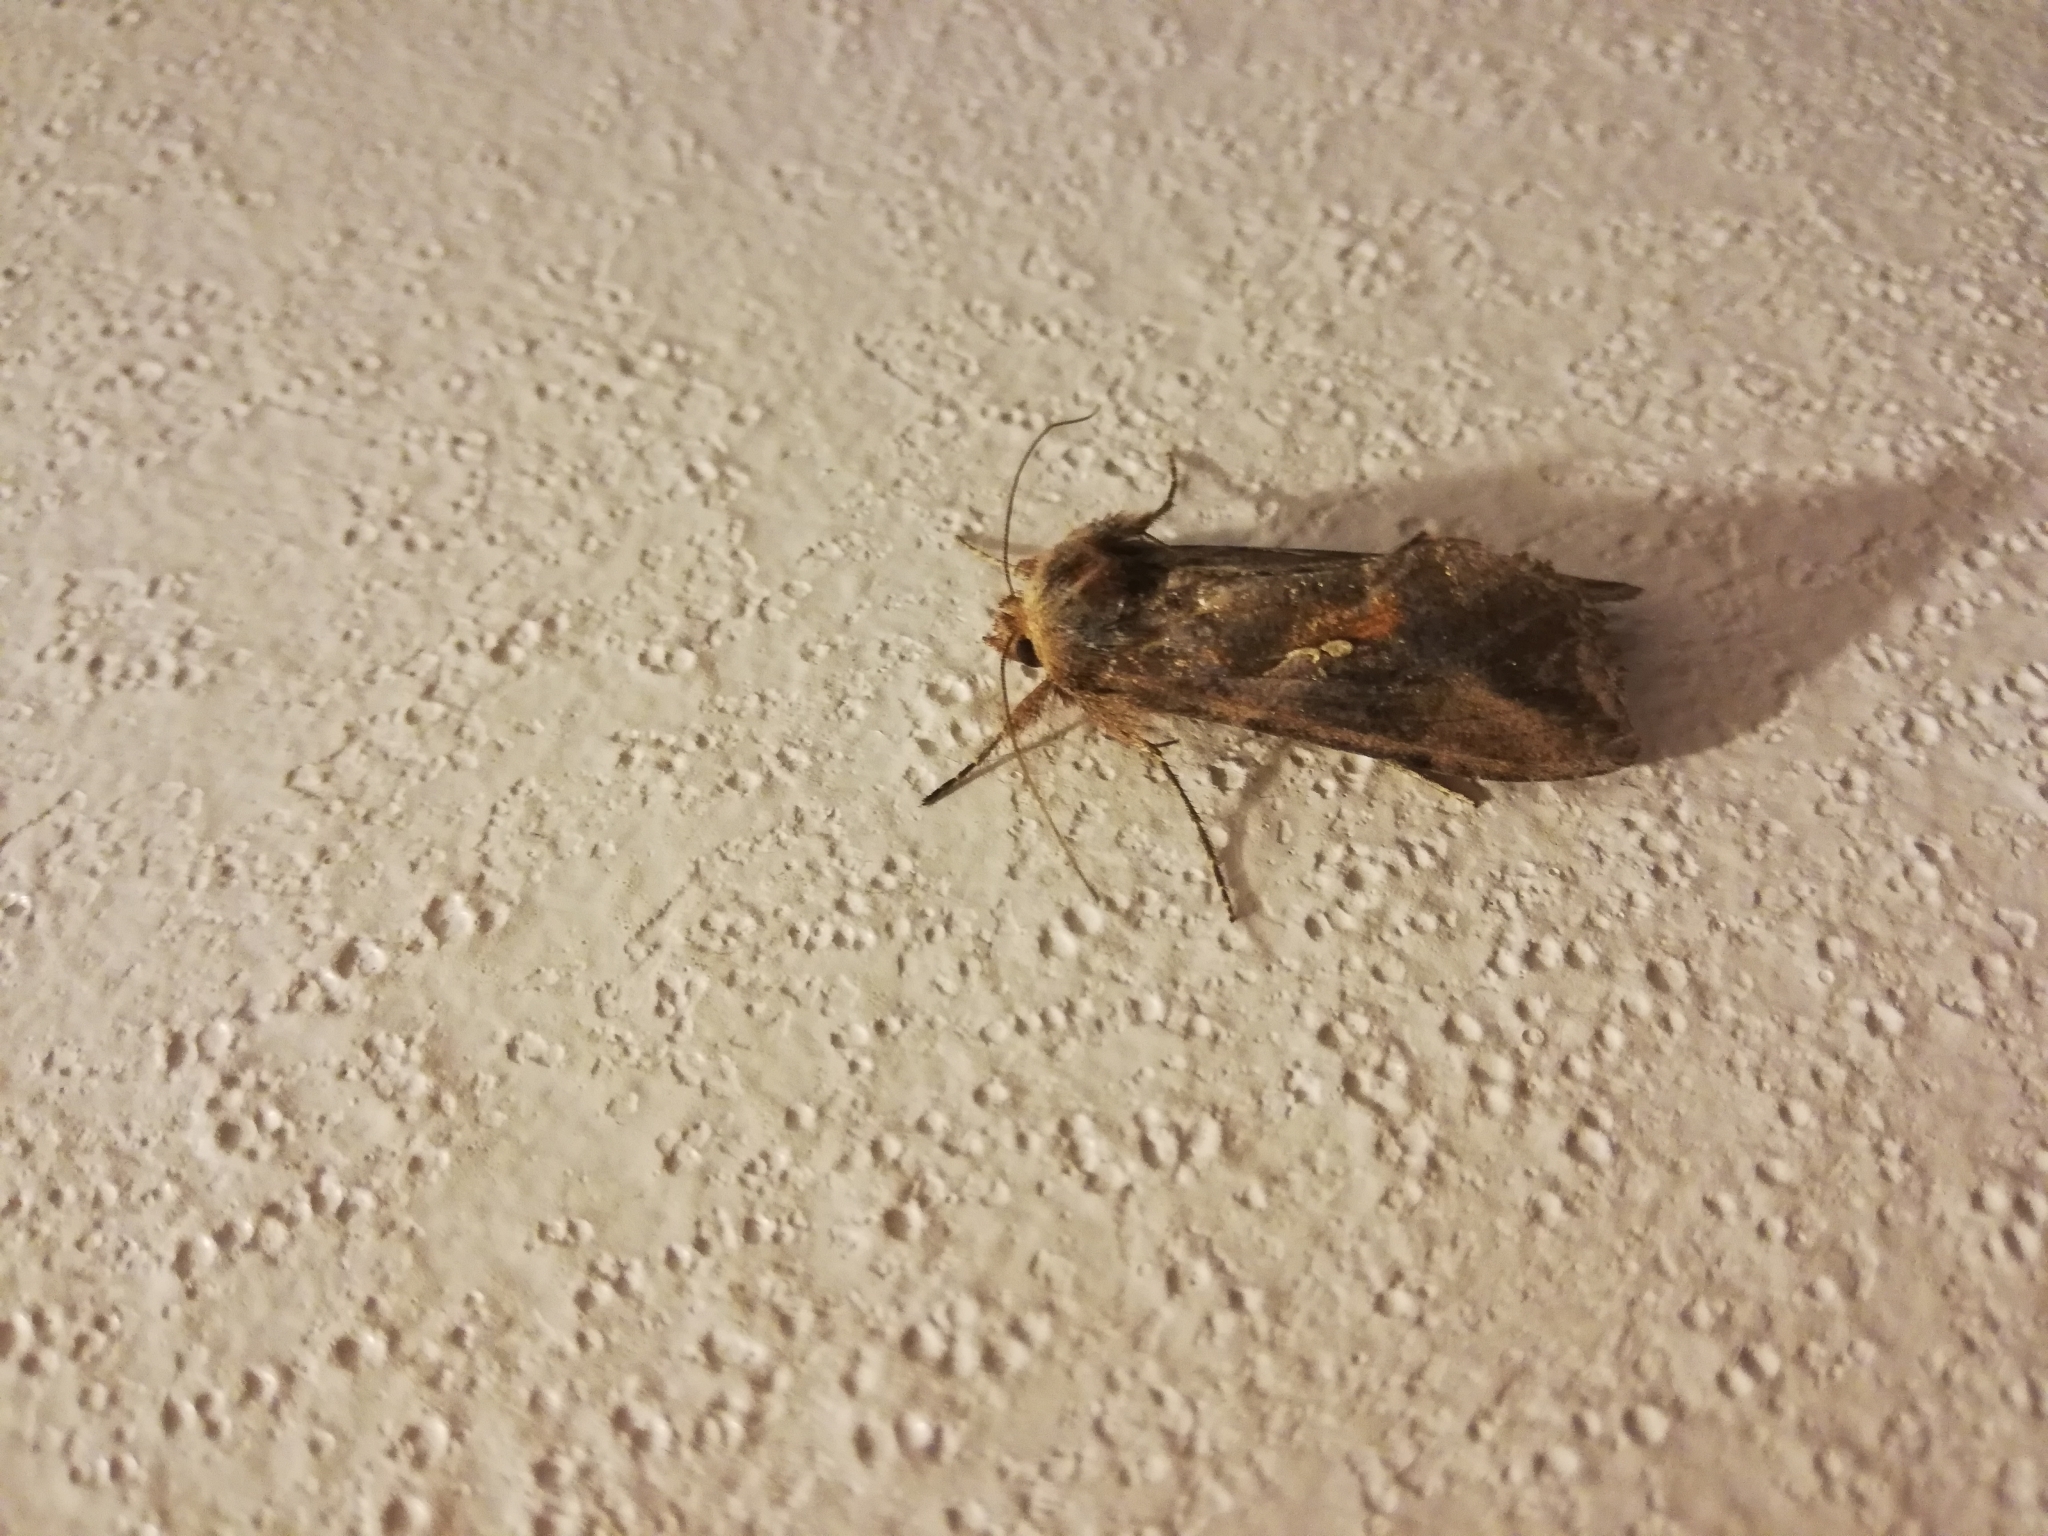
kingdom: Animalia
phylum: Arthropoda
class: Insecta
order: Lepidoptera
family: Noctuidae
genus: Autoplusia
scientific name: Autoplusia gammoides
